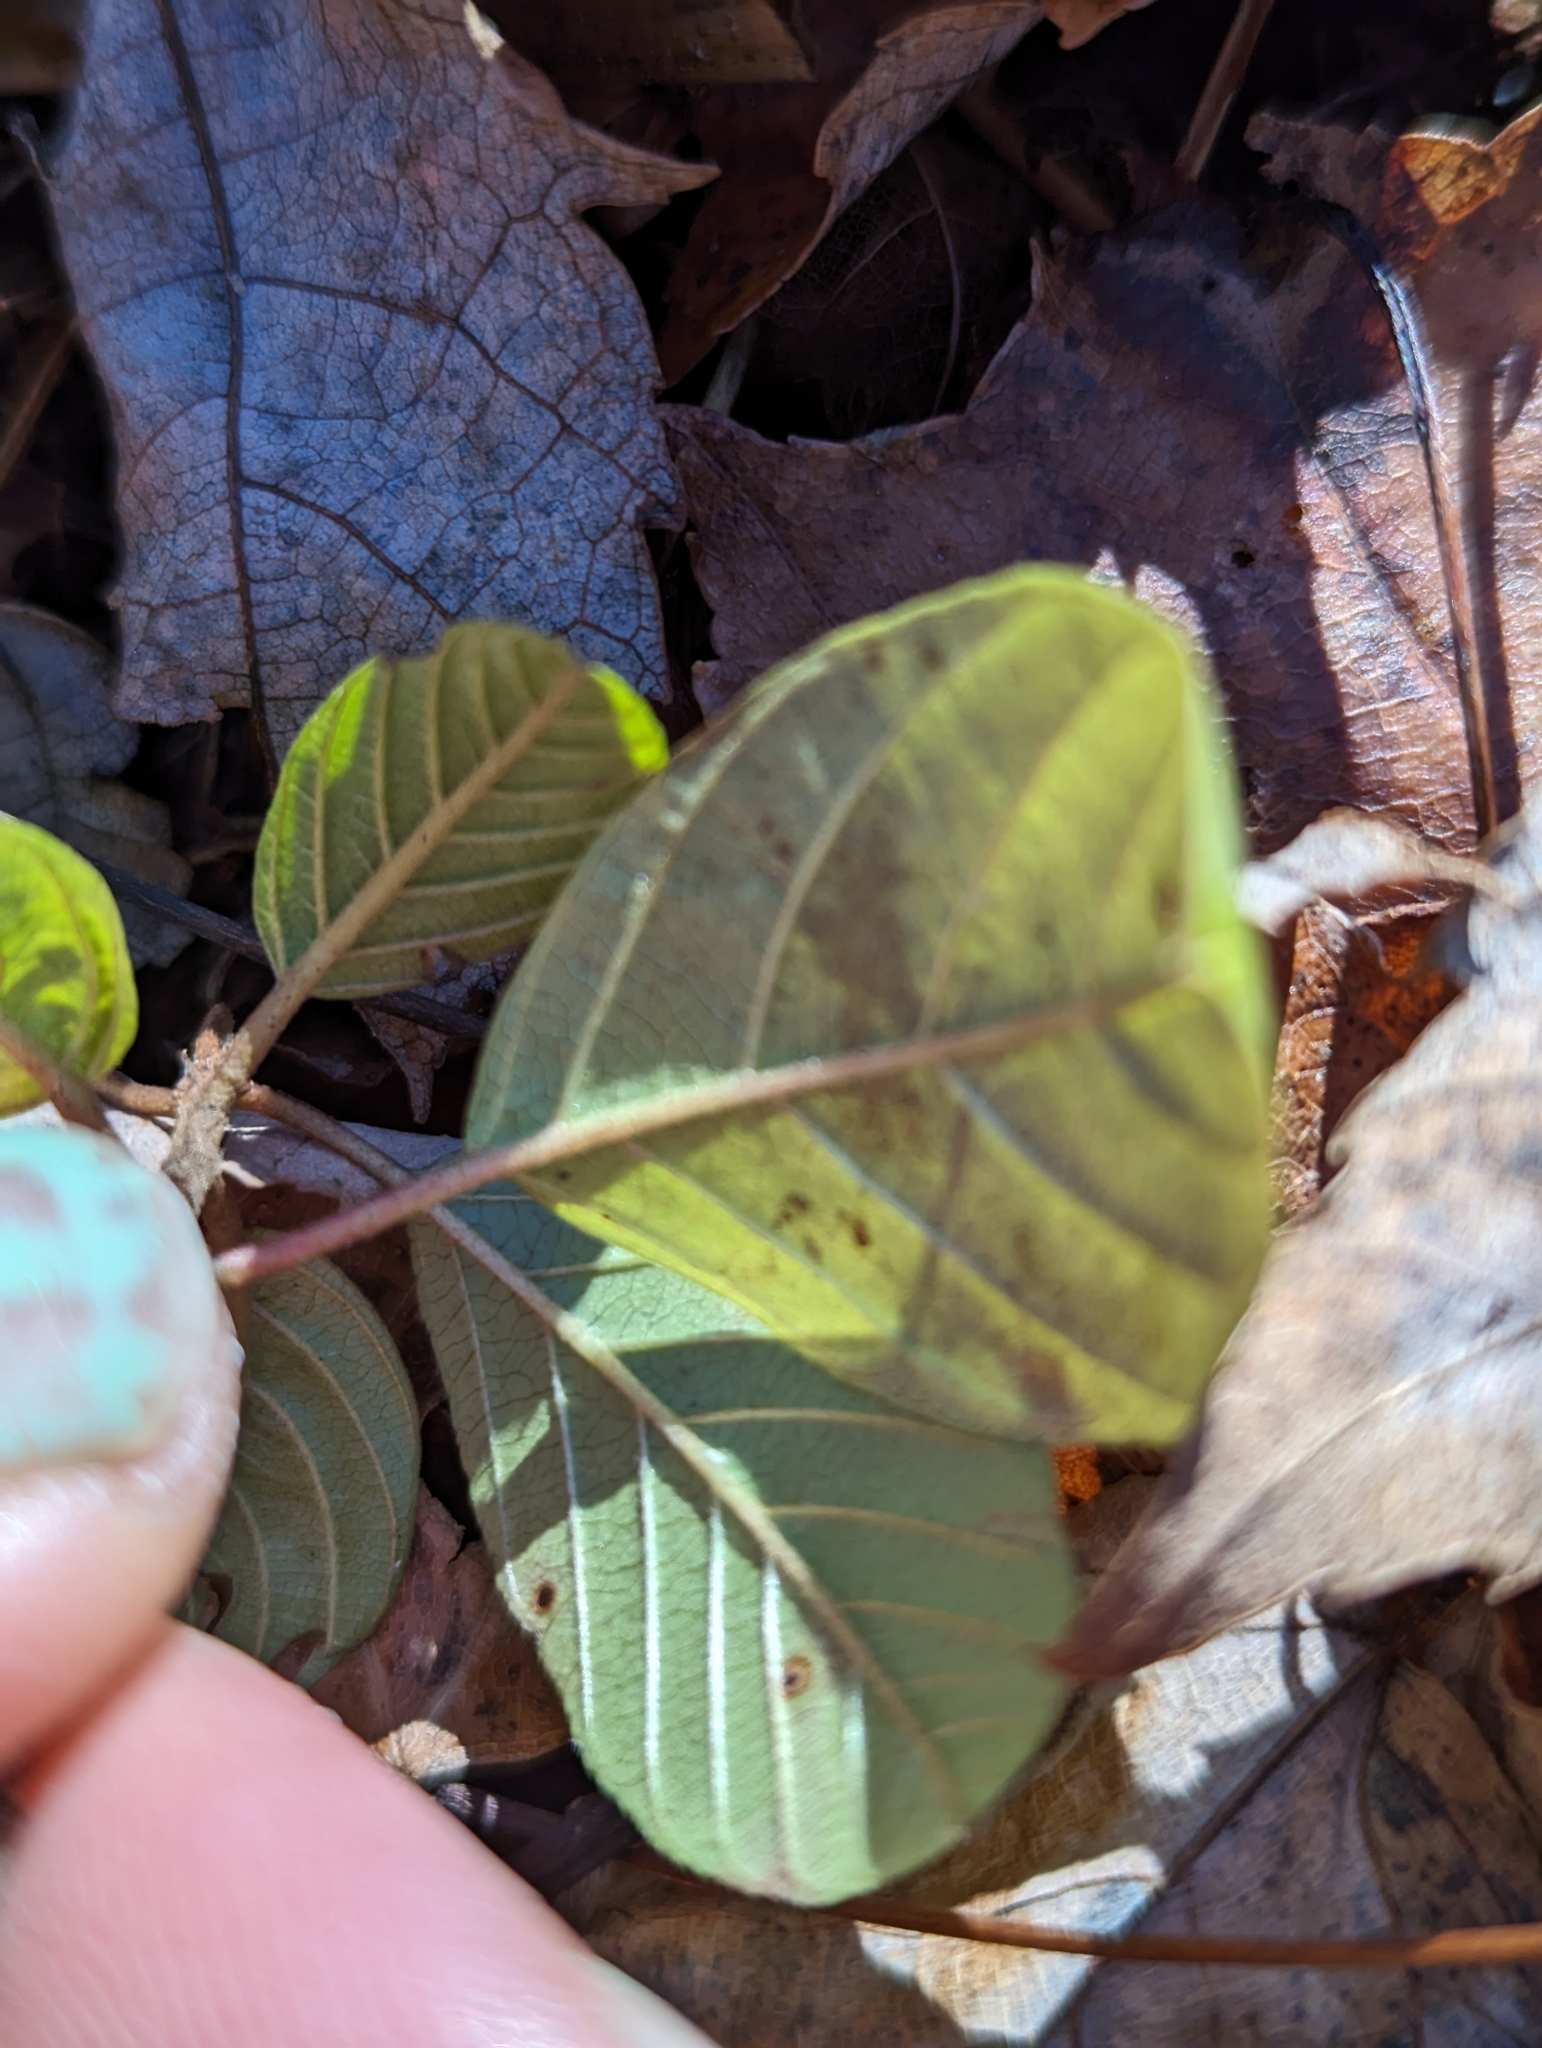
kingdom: Plantae
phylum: Tracheophyta
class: Magnoliopsida
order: Rosales
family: Rhamnaceae
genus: Frangula
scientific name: Frangula alnus
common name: Alder buckthorn
